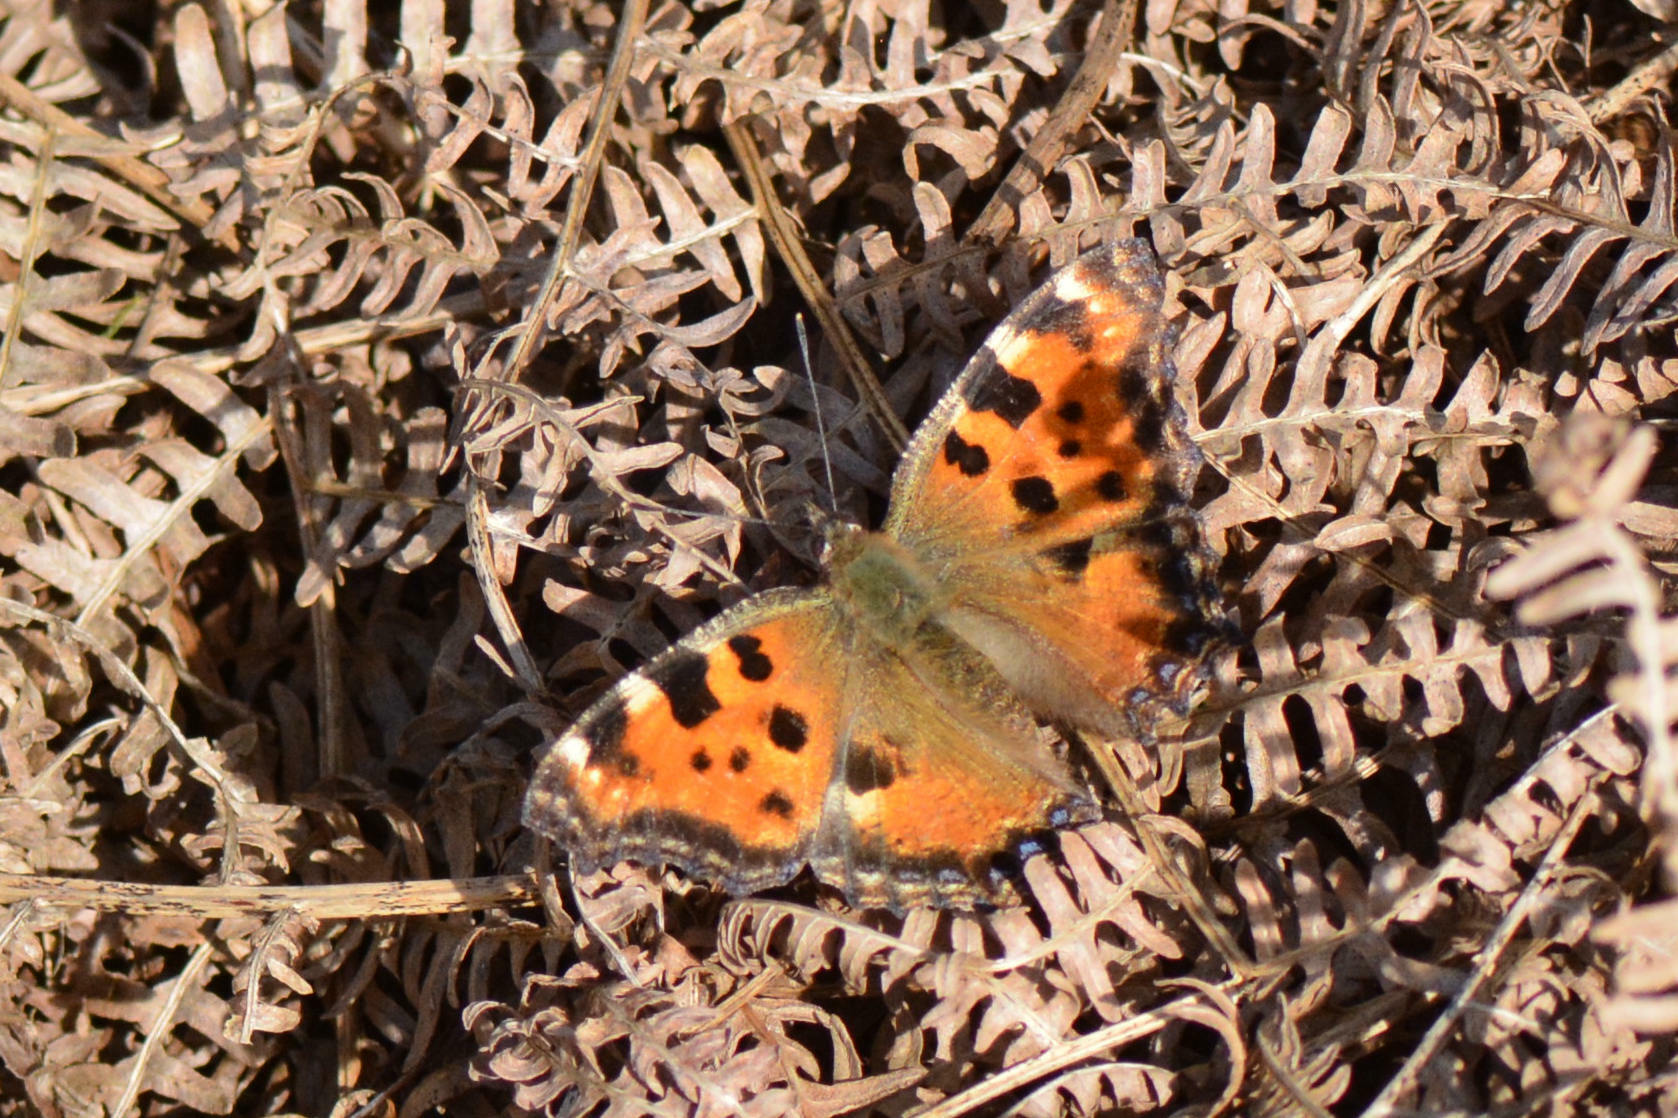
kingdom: Animalia
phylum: Arthropoda
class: Insecta
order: Lepidoptera
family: Nymphalidae
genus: Nymphalis
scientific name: Nymphalis polychloros
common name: Large tortoiseshell
